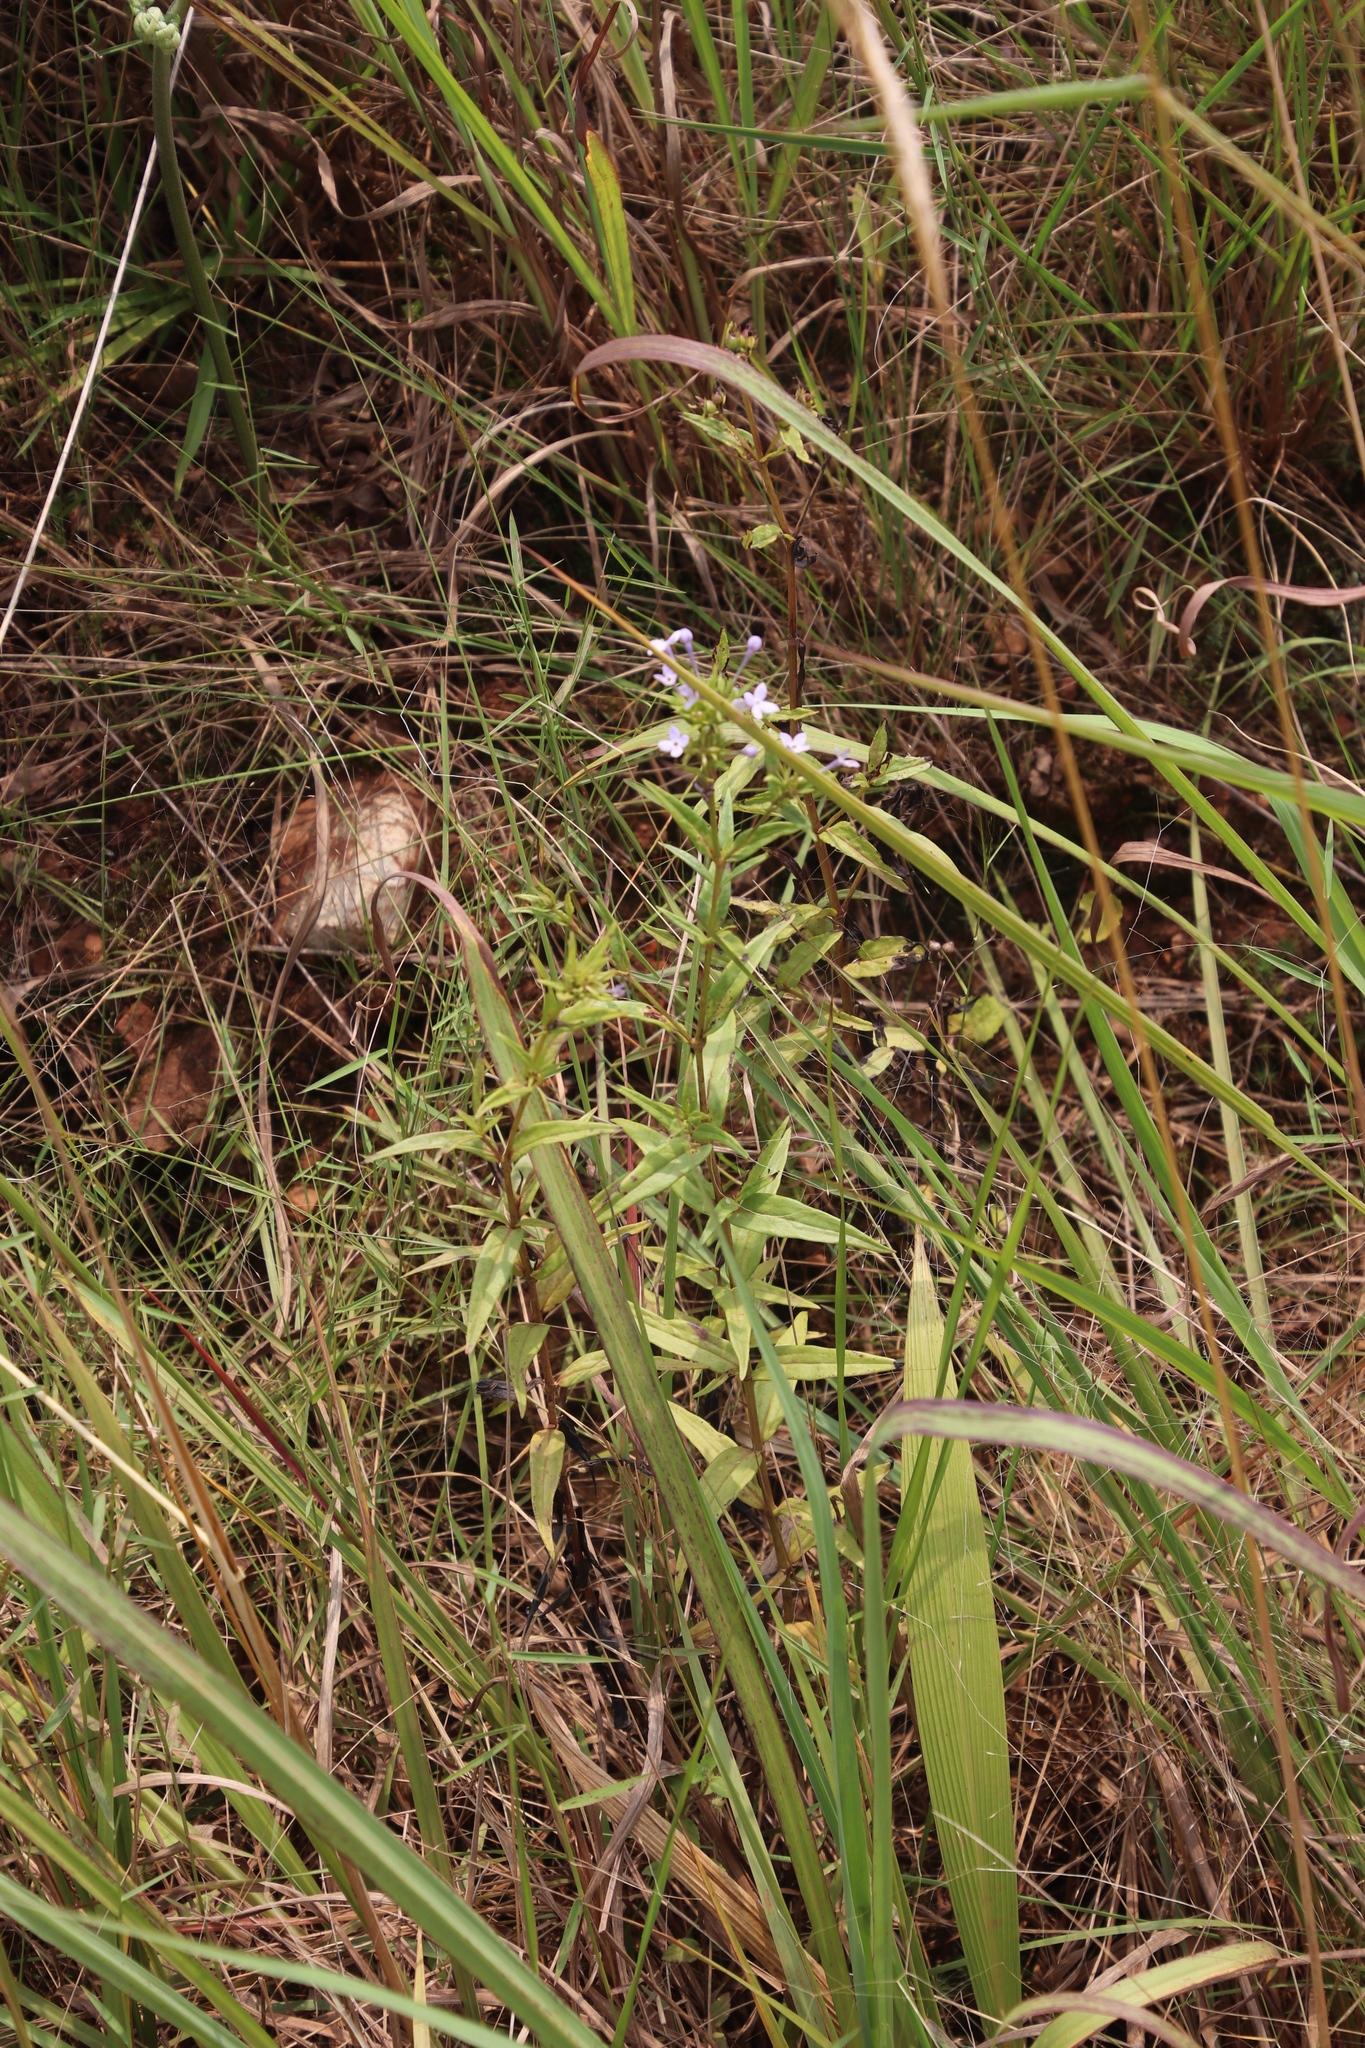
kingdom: Plantae
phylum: Tracheophyta
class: Magnoliopsida
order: Gentianales
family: Rubiaceae
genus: Conostomium
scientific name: Conostomium natalense
